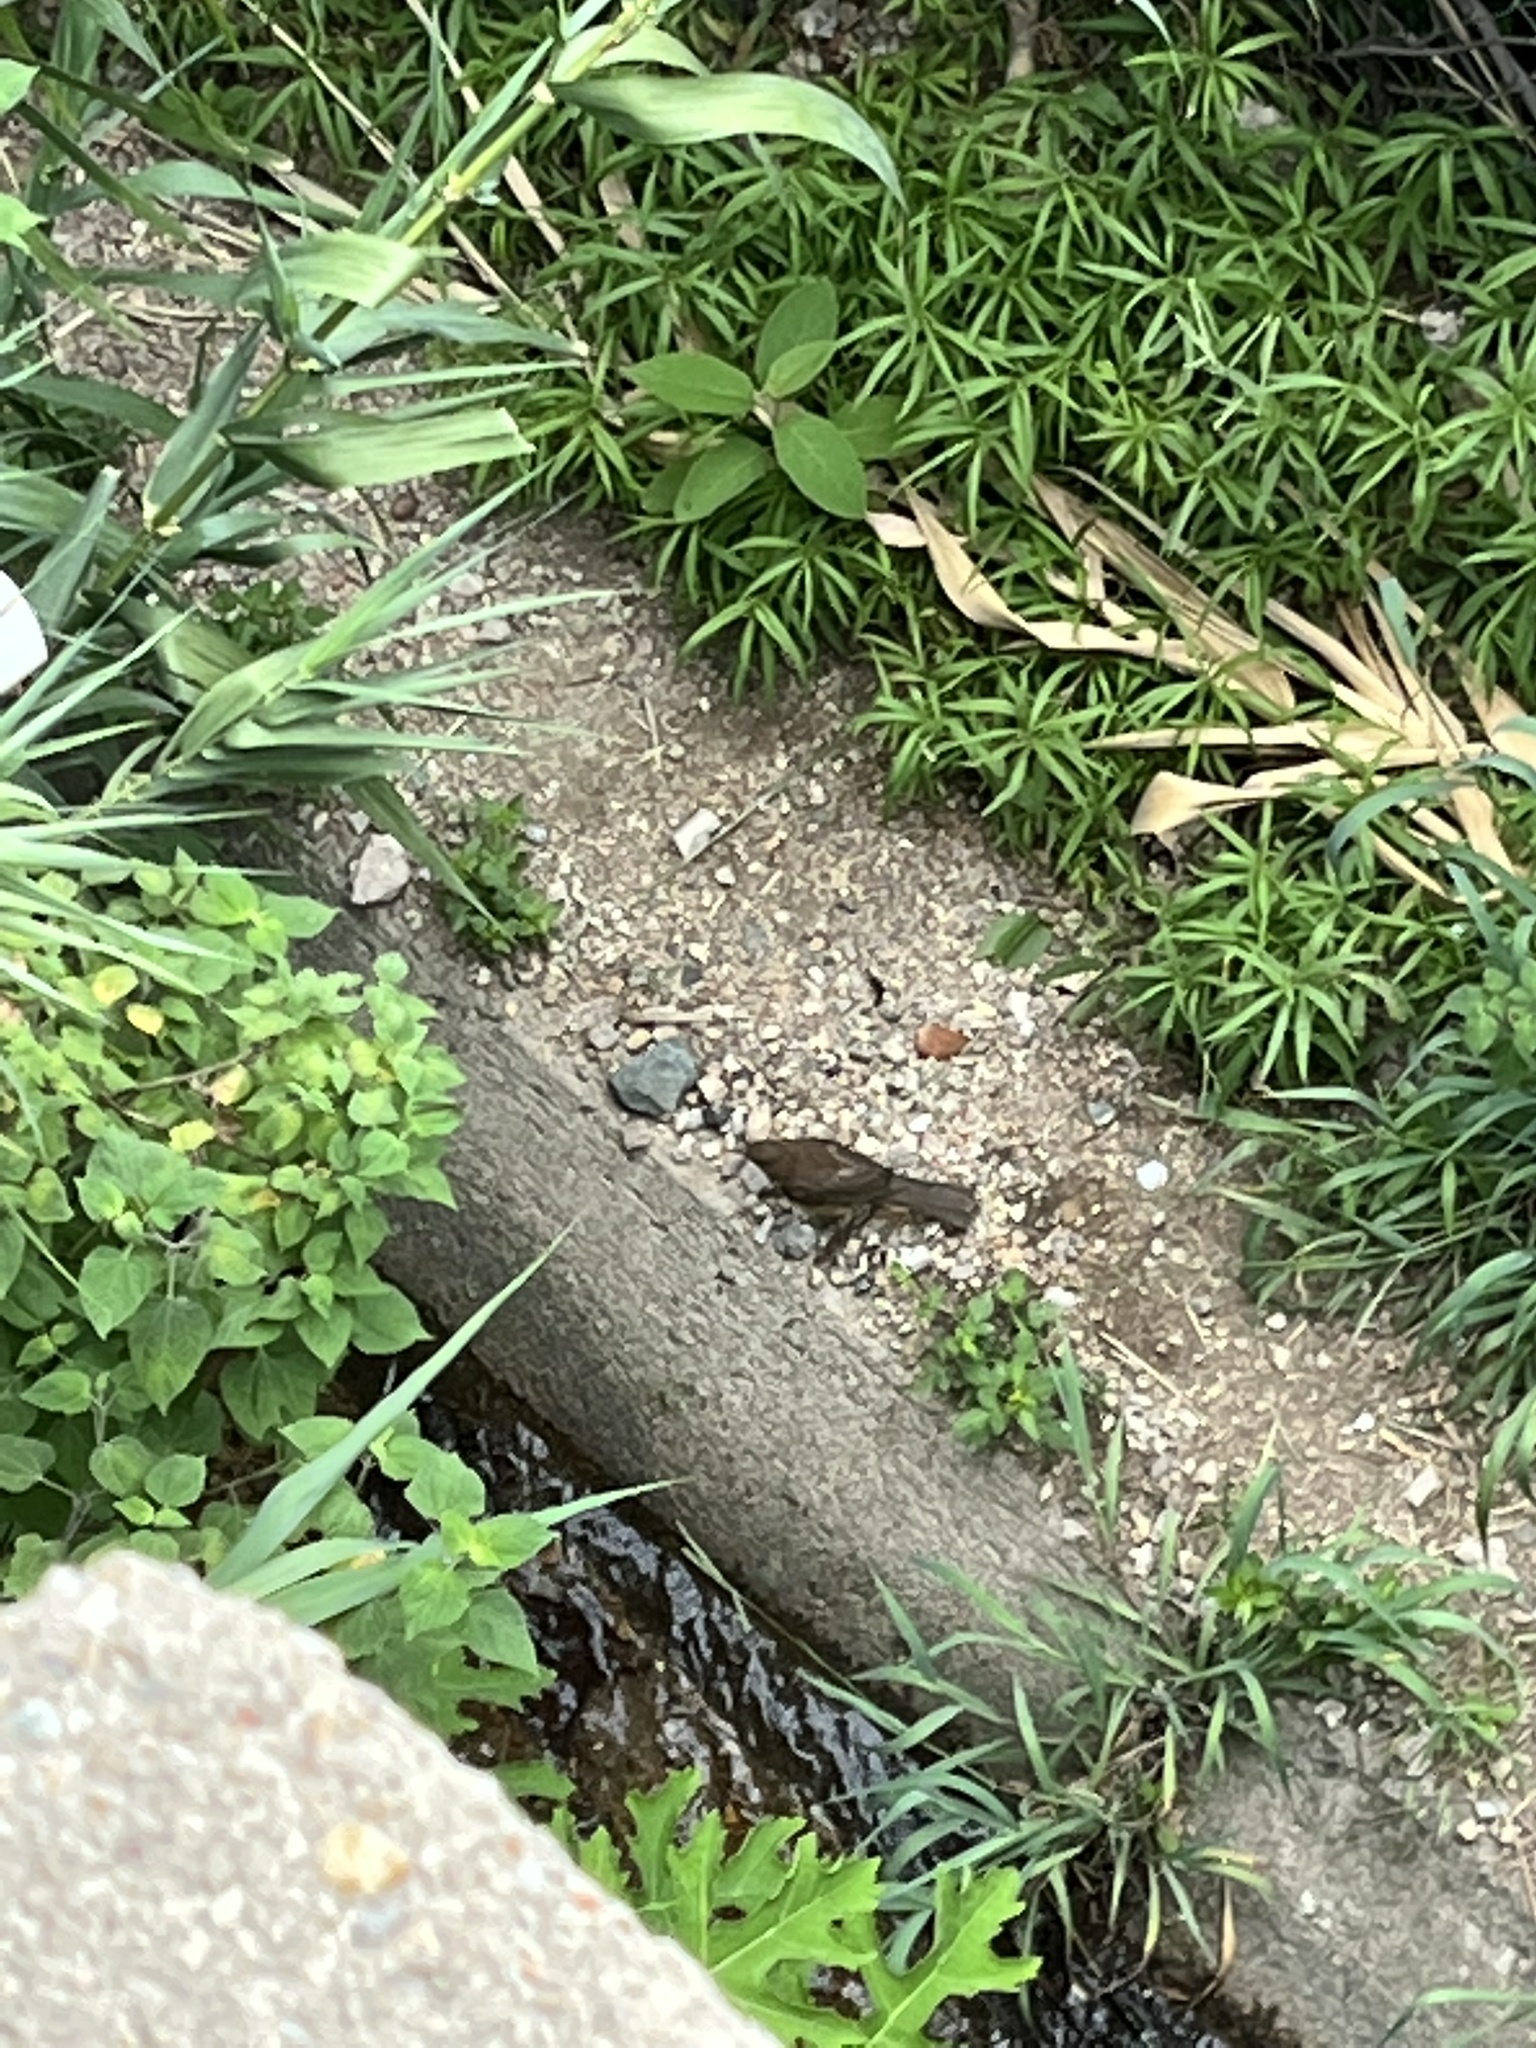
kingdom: Animalia
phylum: Chordata
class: Aves
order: Passeriformes
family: Turdidae
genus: Turdus
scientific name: Turdus grayi
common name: Clay-colored thrush
